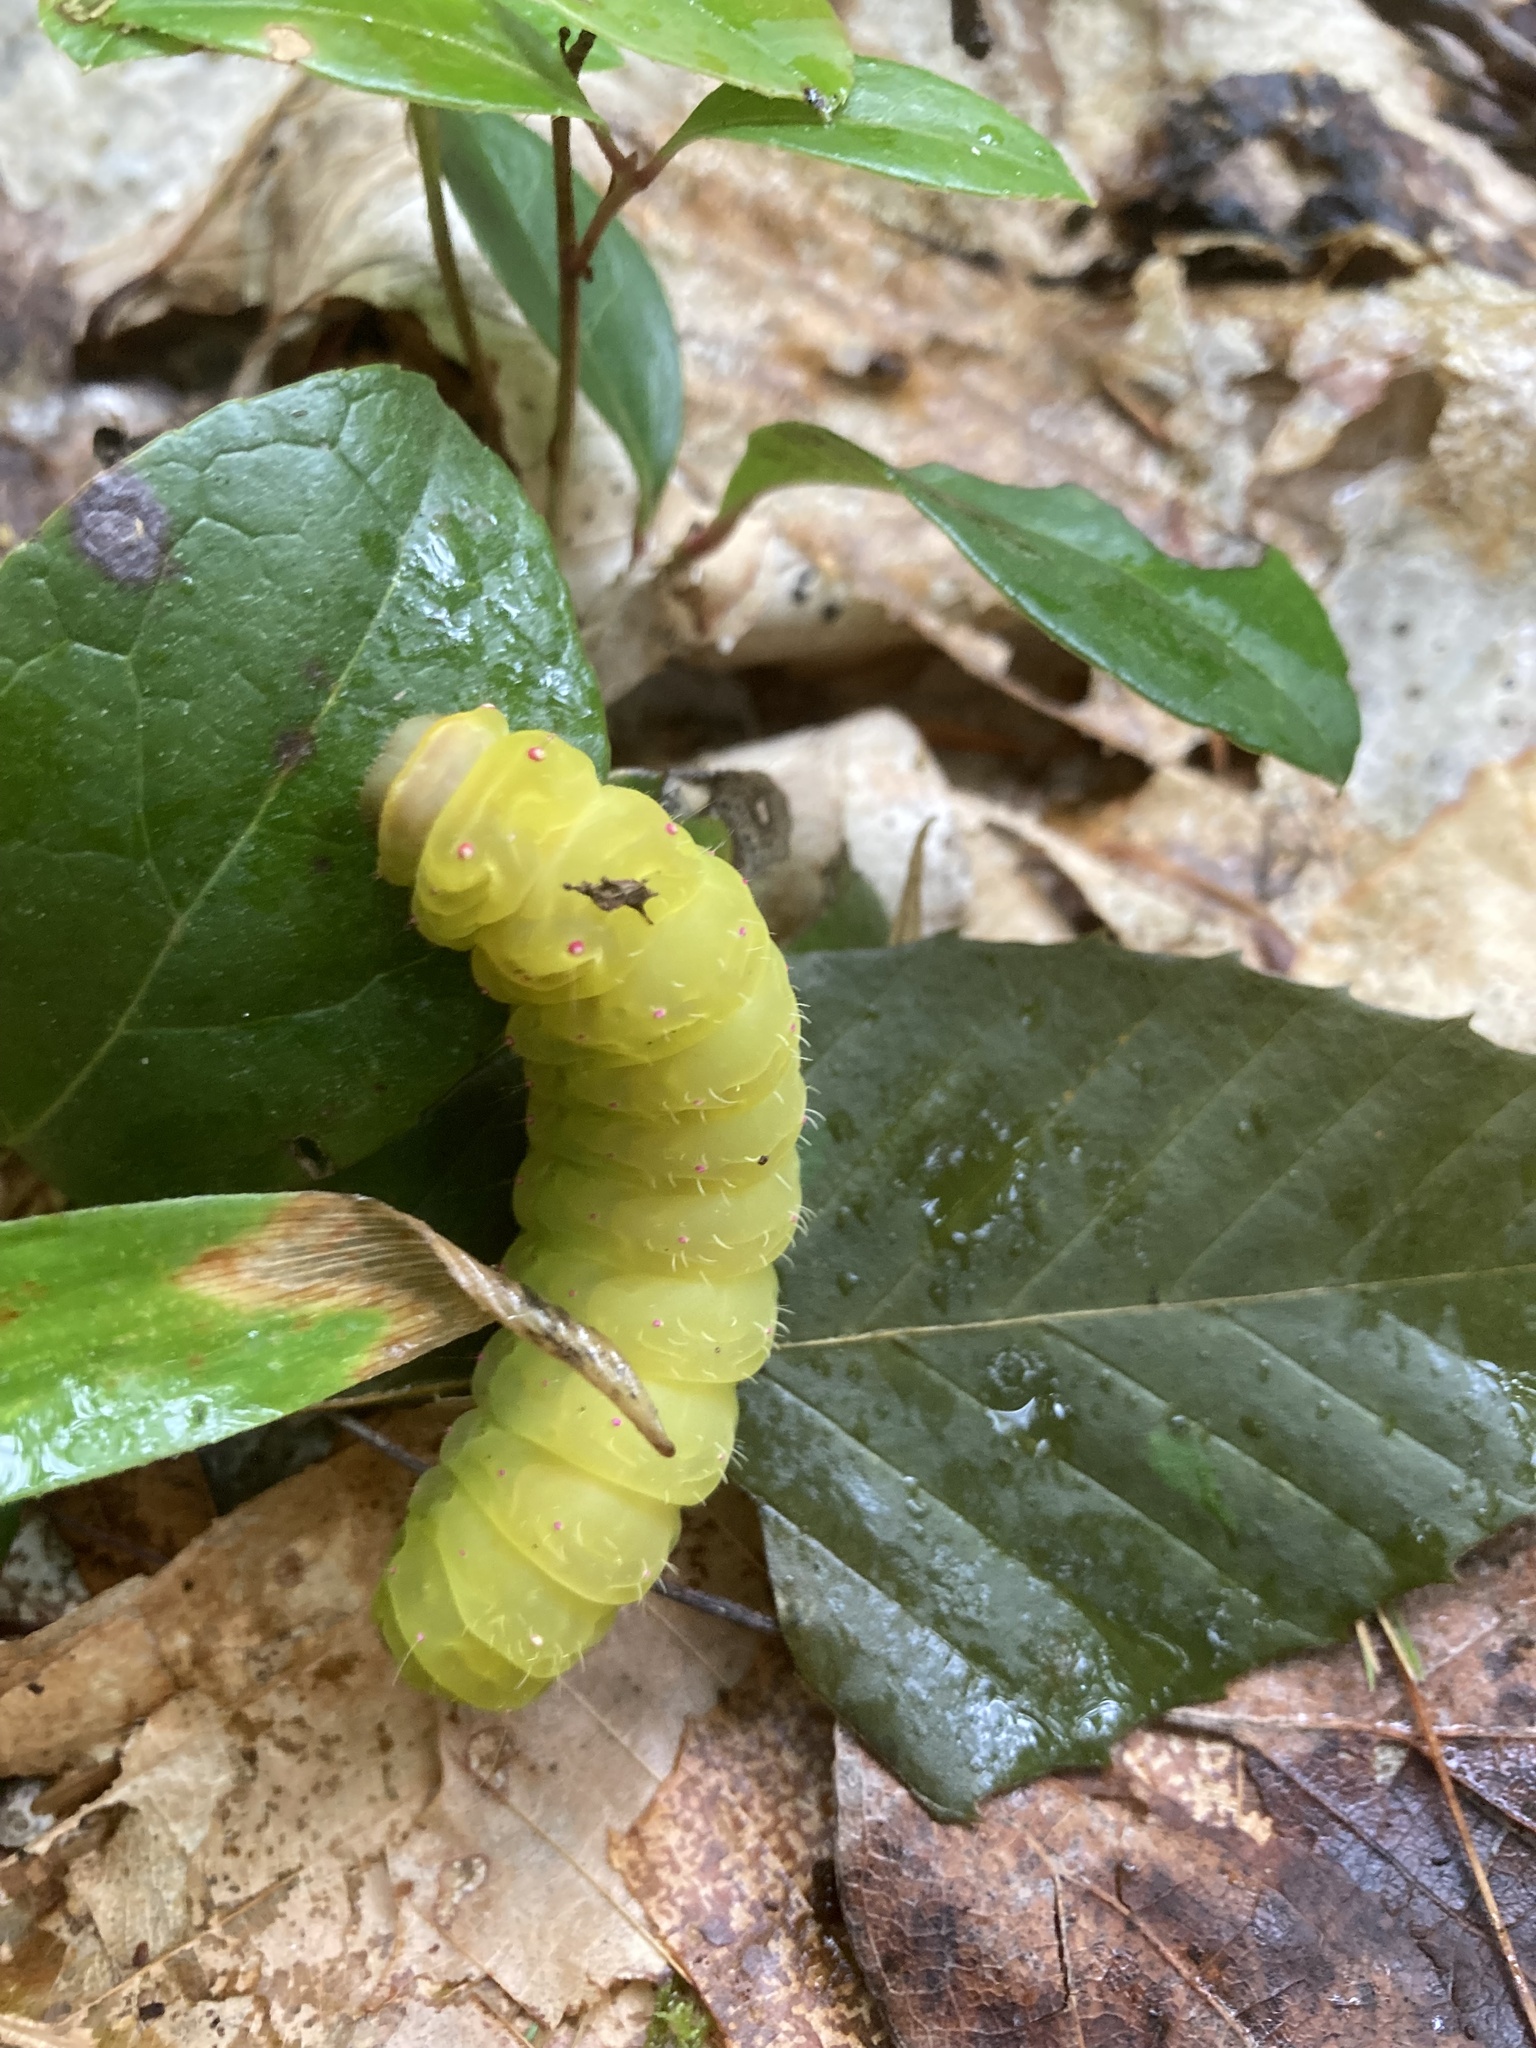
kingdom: Animalia
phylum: Arthropoda
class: Insecta
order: Lepidoptera
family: Saturniidae
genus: Actias
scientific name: Actias luna
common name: Luna moth
